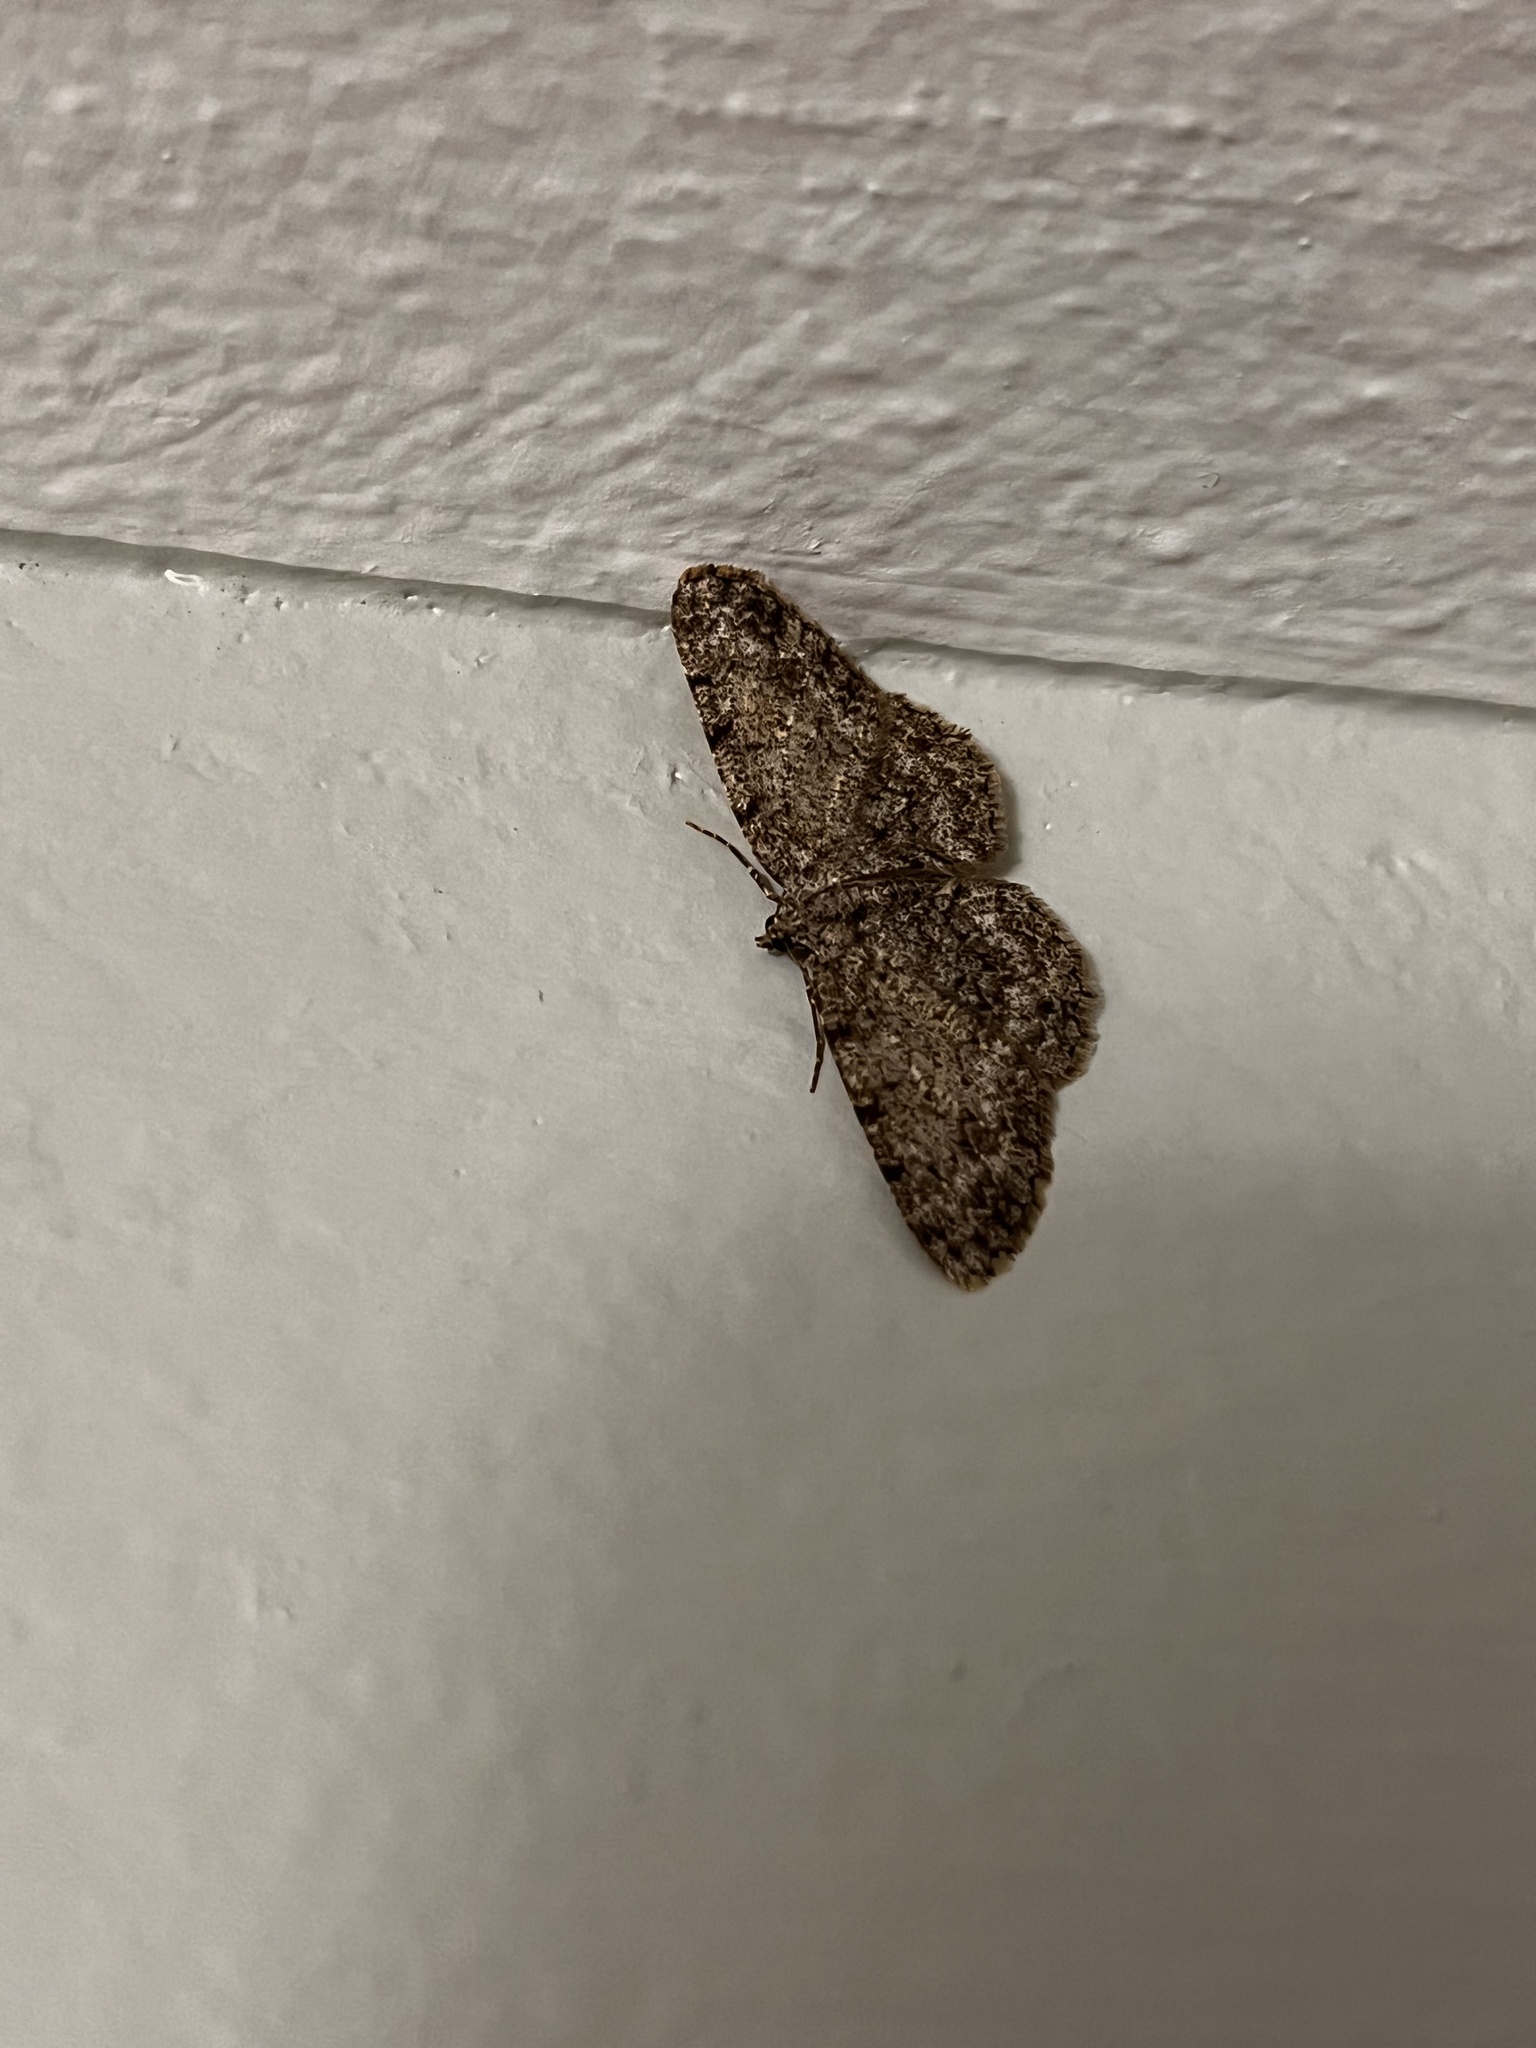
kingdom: Animalia
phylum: Arthropoda
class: Insecta
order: Lepidoptera
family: Geometridae
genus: Protoboarmia
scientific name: Protoboarmia porcelaria
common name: Porcelain gray
